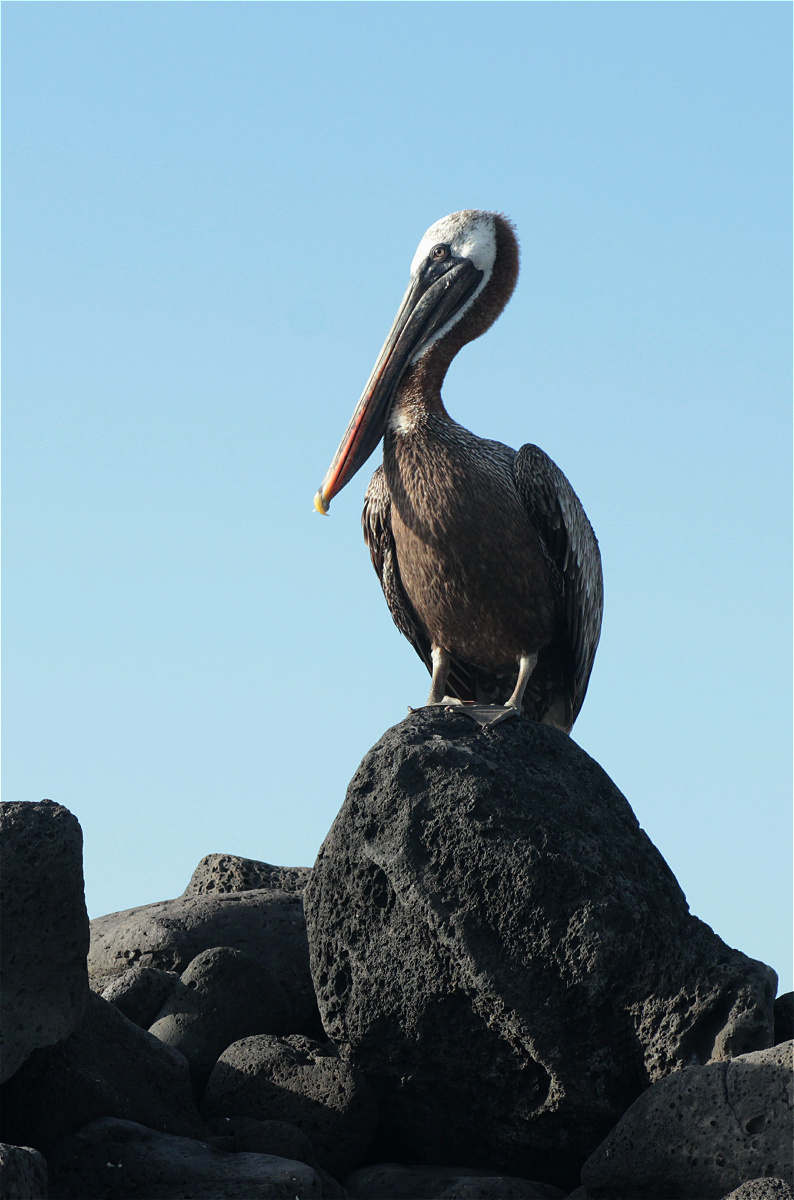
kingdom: Animalia
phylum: Chordata
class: Aves
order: Pelecaniformes
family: Pelecanidae
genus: Pelecanus
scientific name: Pelecanus occidentalis
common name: Brown pelican
